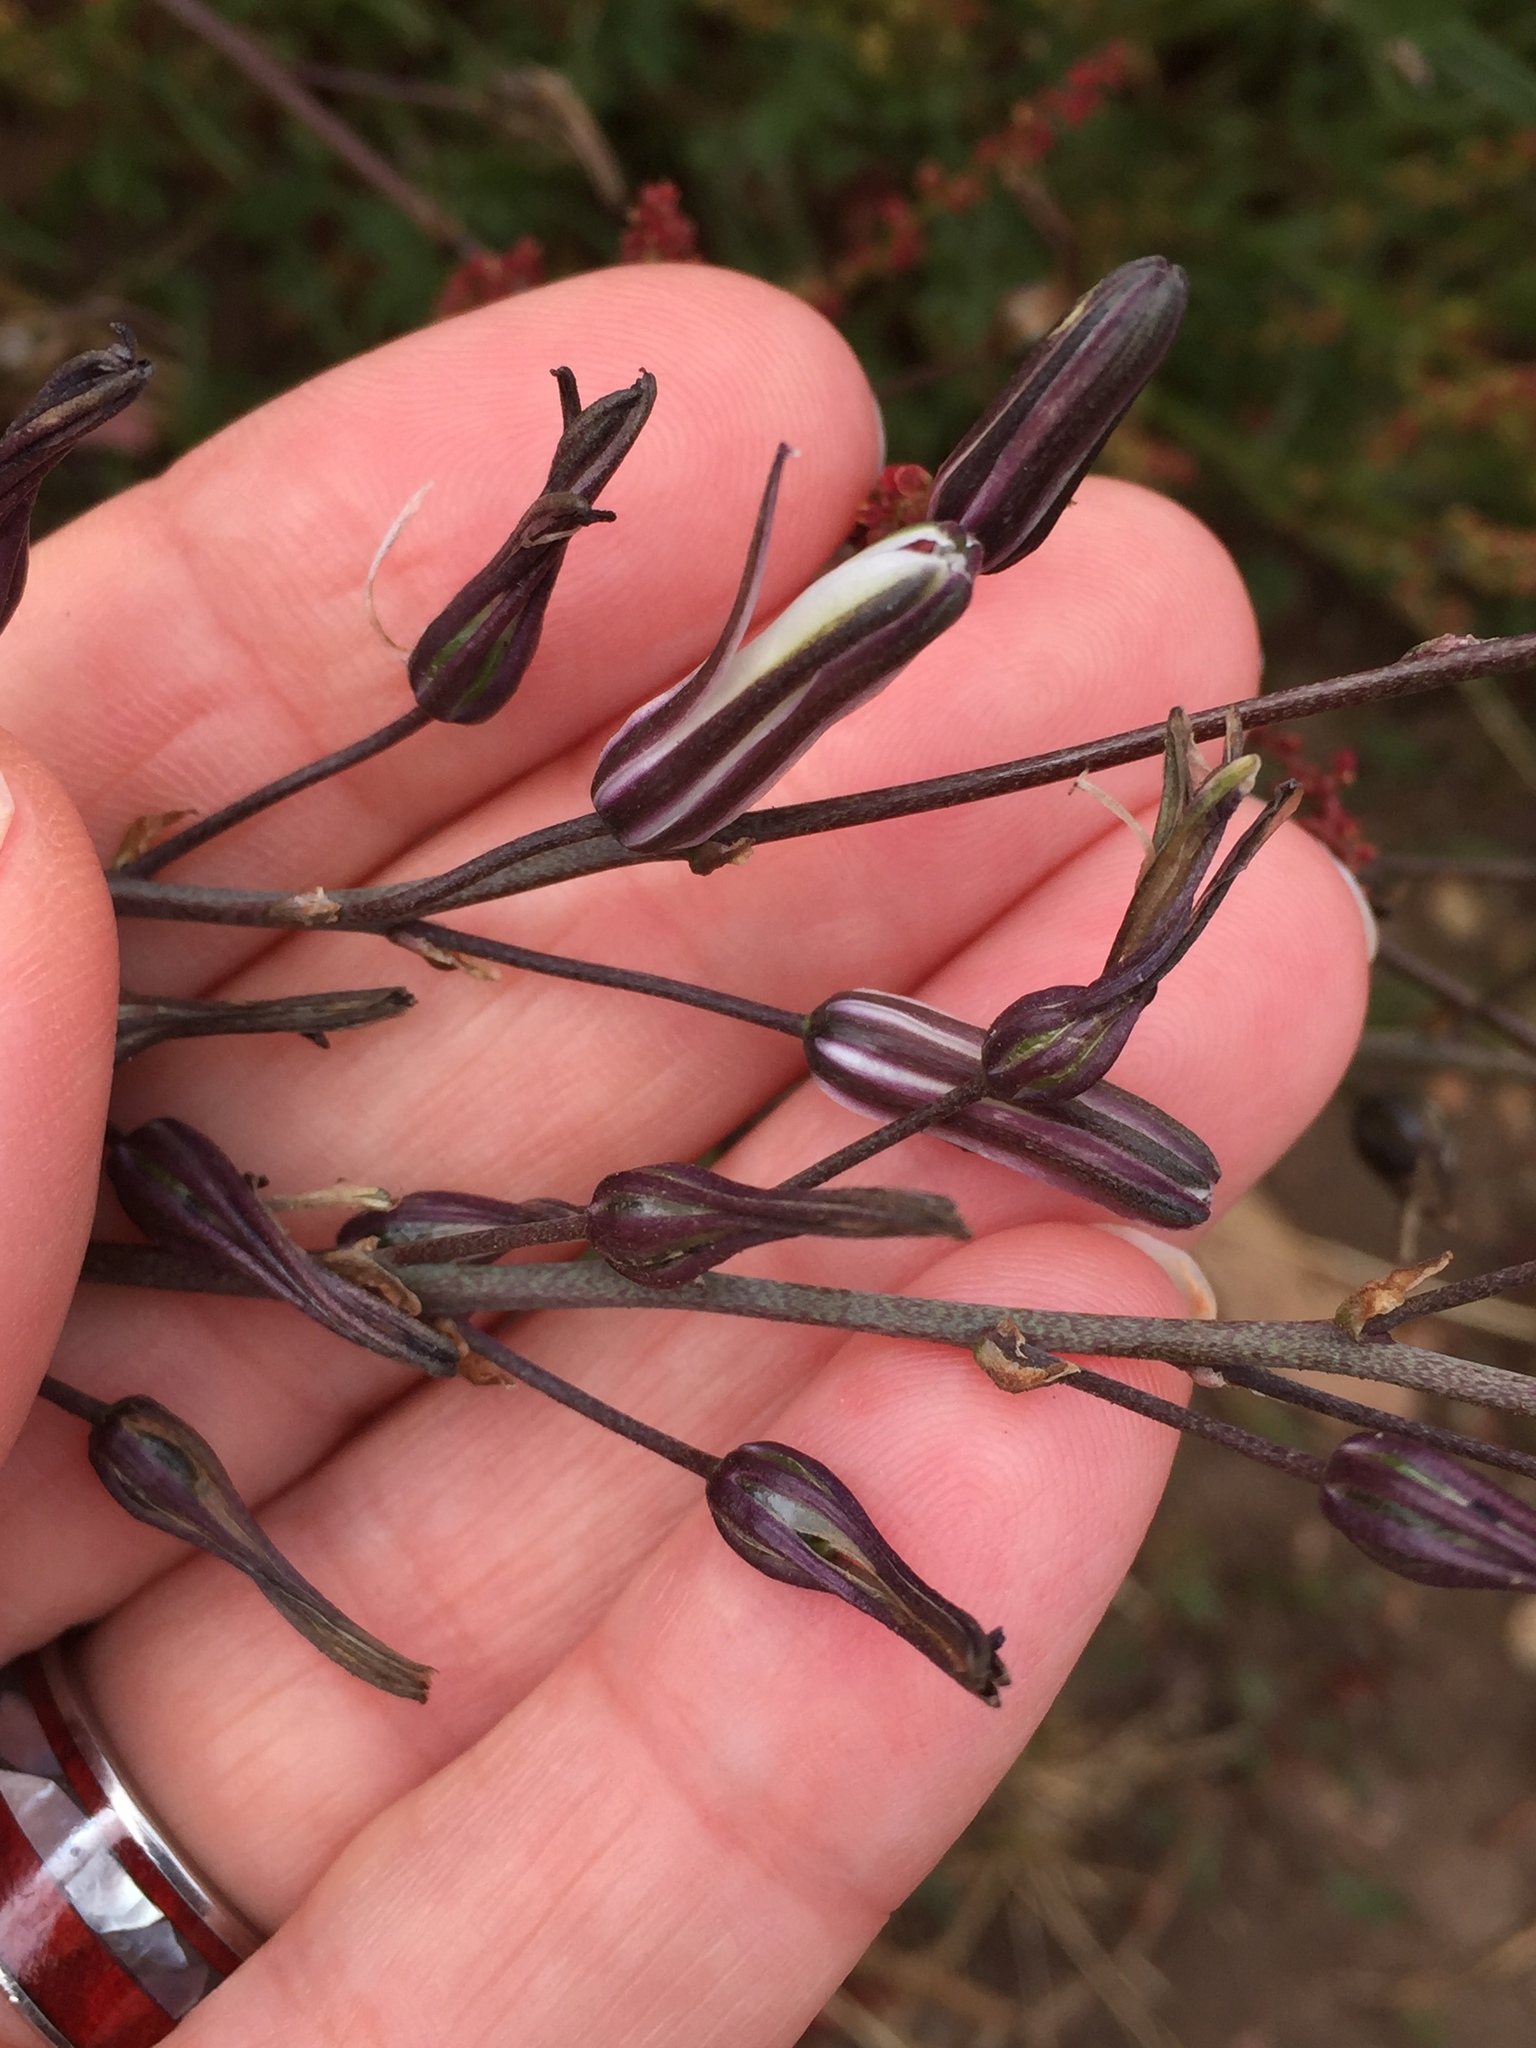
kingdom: Plantae
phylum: Tracheophyta
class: Liliopsida
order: Asparagales
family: Asparagaceae
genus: Chlorogalum
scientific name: Chlorogalum pomeridianum
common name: Amole
